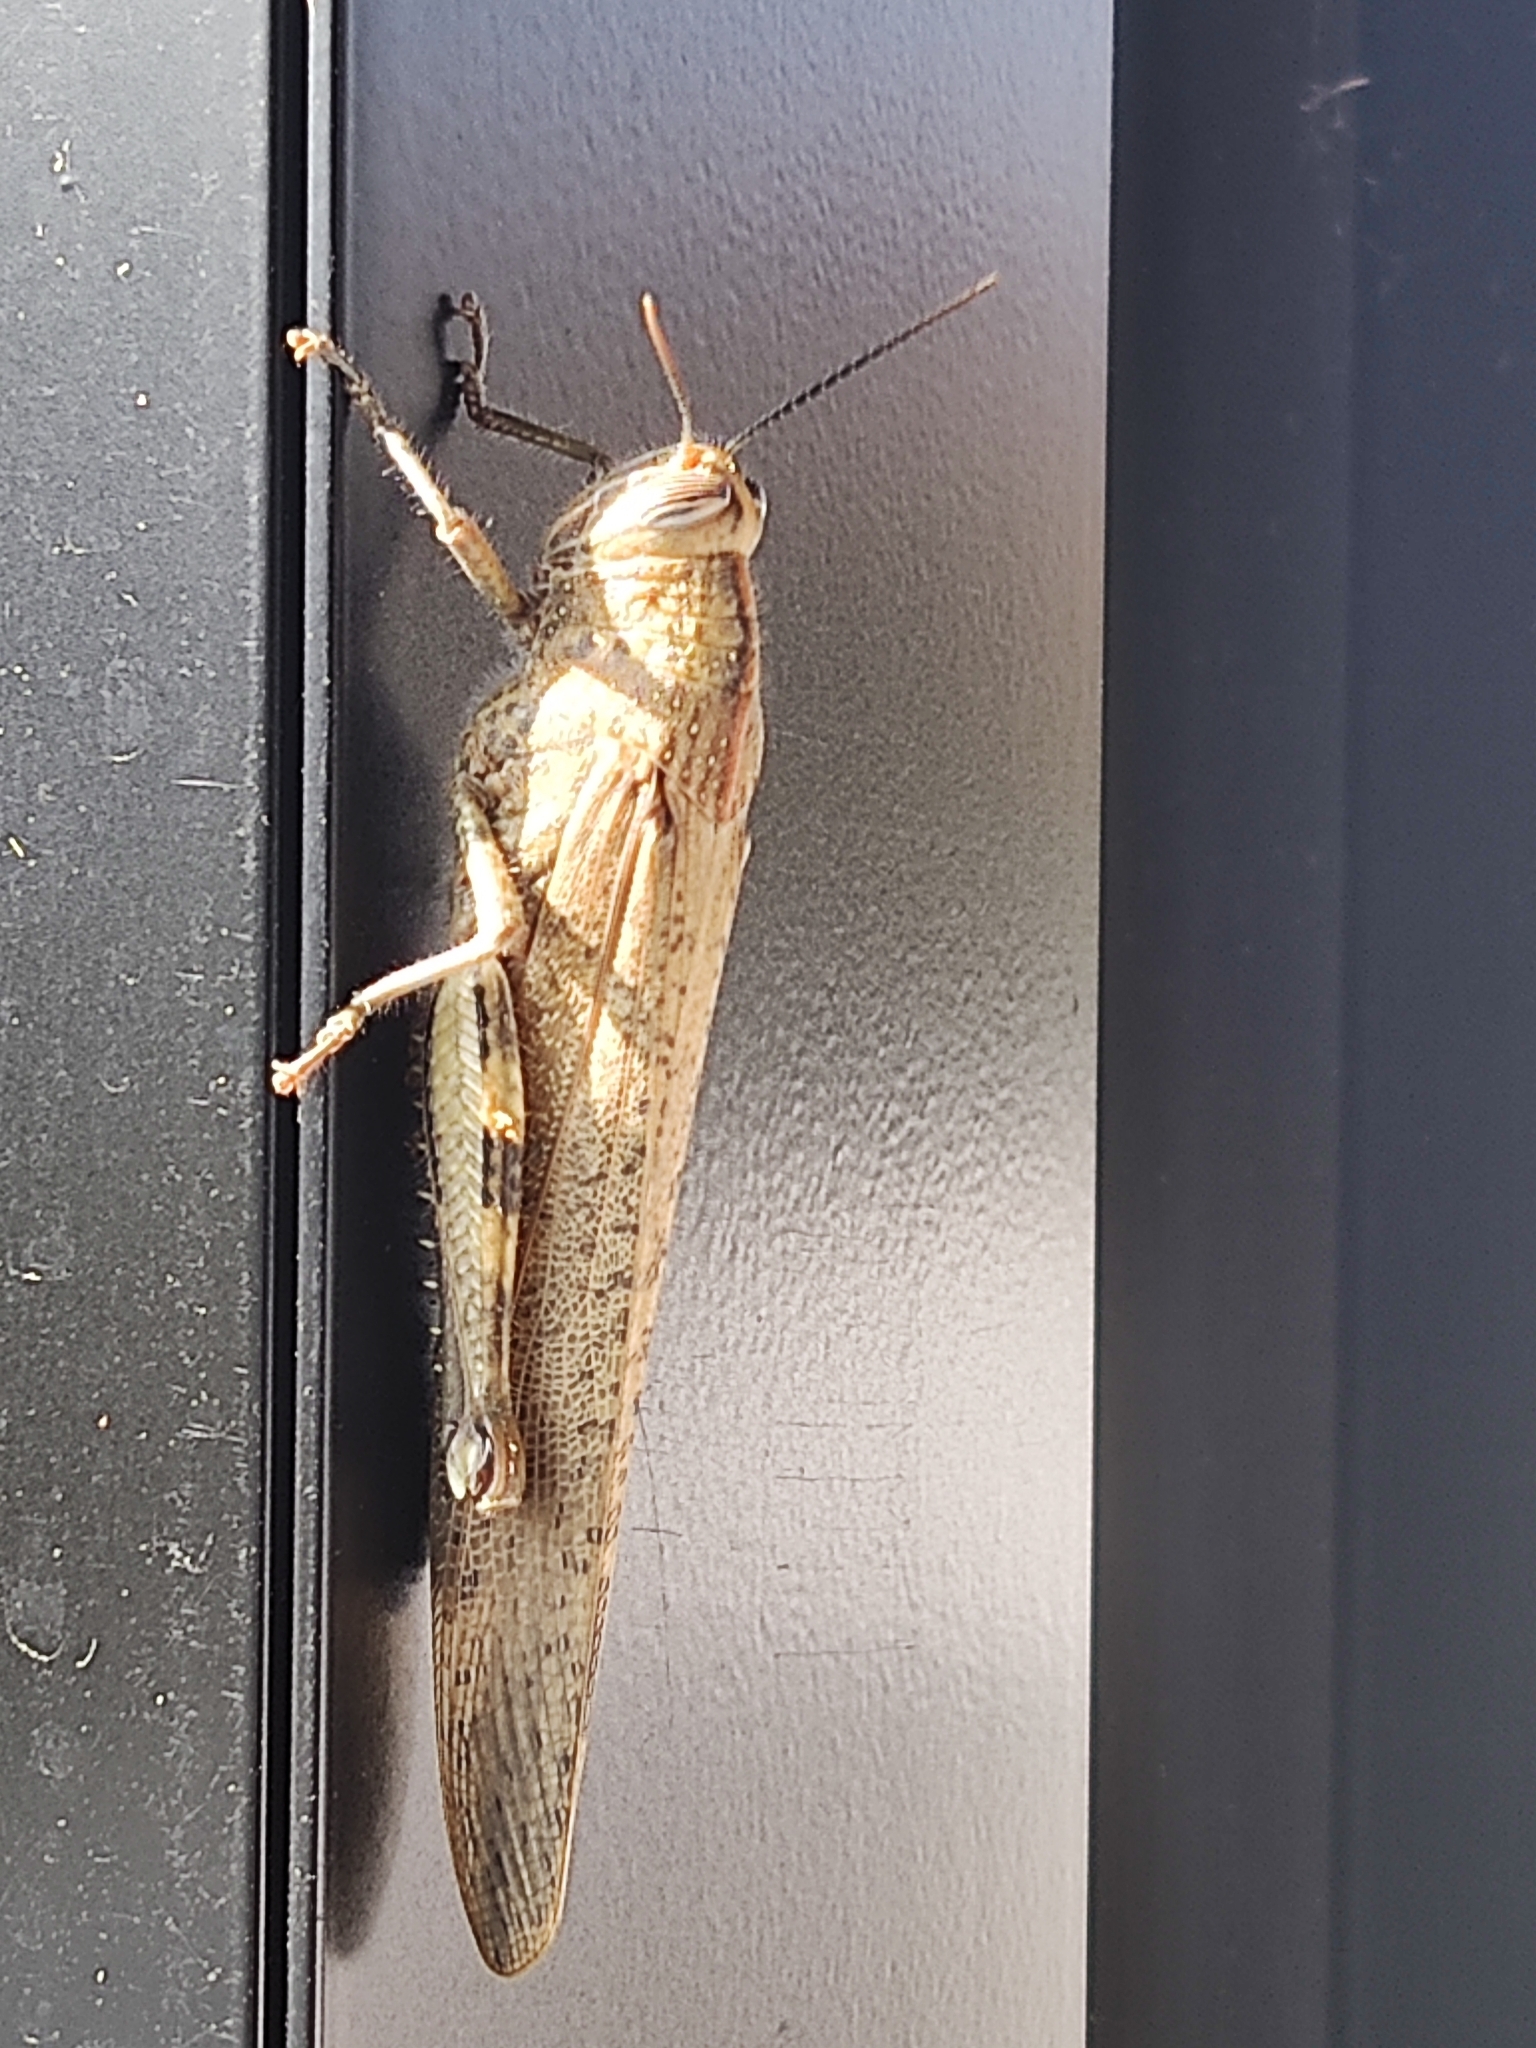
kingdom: Animalia
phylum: Arthropoda
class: Insecta
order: Orthoptera
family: Acrididae
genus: Anacridium
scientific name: Anacridium aegyptium
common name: Egyptian grasshopper
